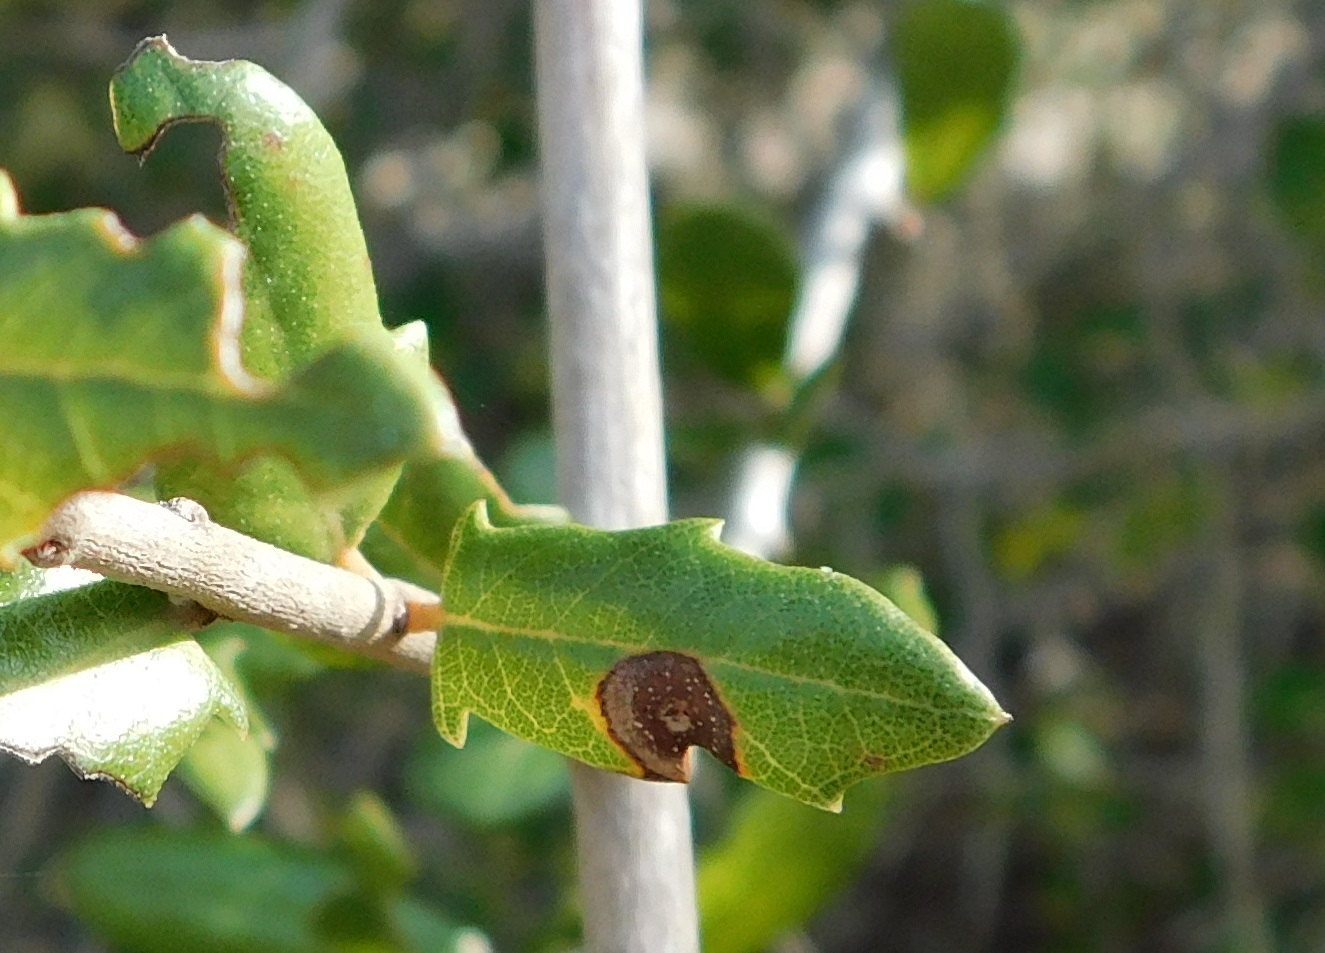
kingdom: Animalia
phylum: Arthropoda
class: Insecta
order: Hymenoptera
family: Cynipidae
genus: Andricus
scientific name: Andricus quercusfoliatus
